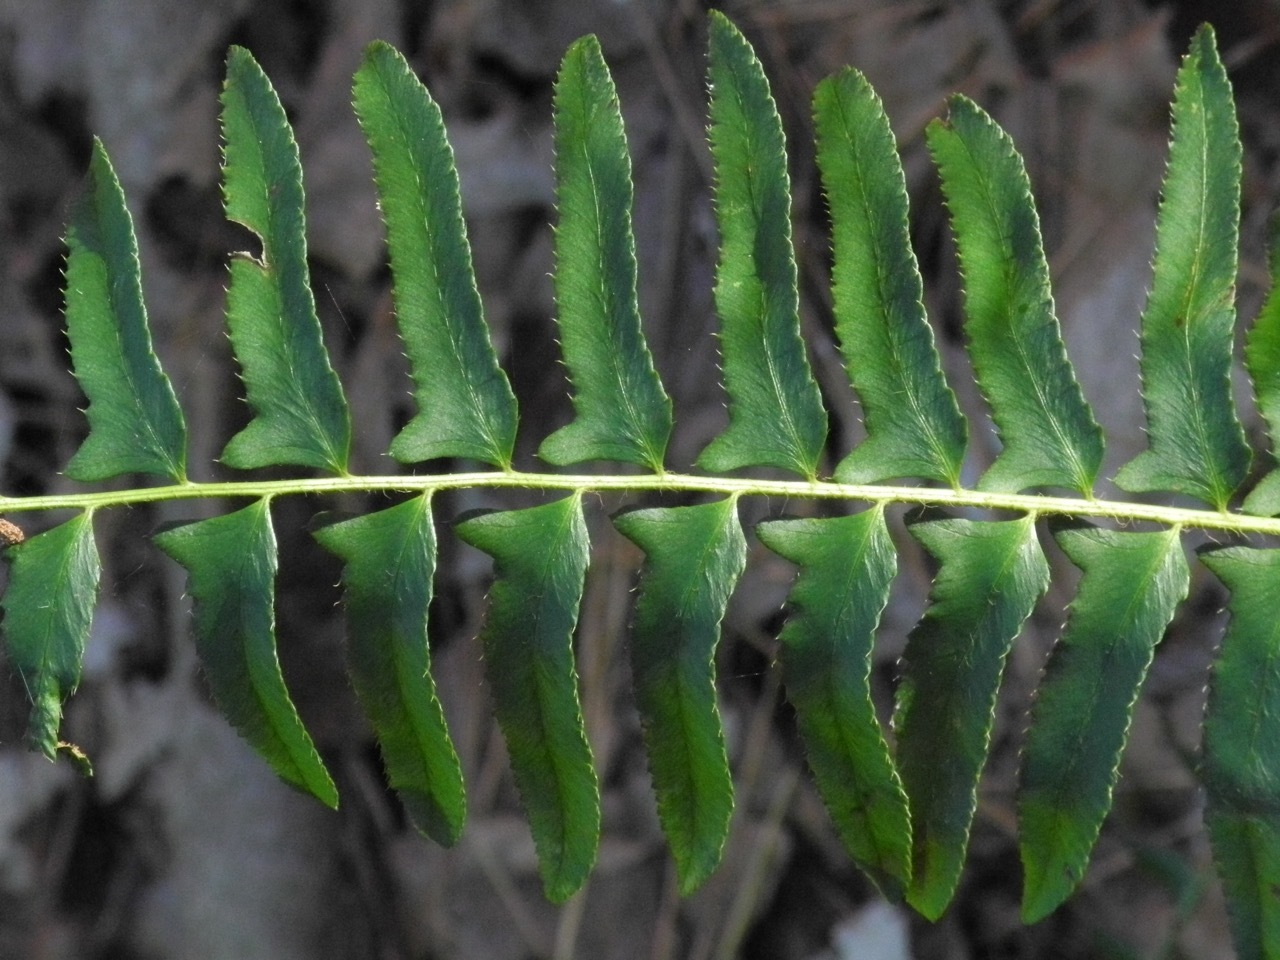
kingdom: Plantae
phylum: Tracheophyta
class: Polypodiopsida
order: Polypodiales
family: Dryopteridaceae
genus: Polystichum
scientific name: Polystichum acrostichoides
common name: Christmas fern
